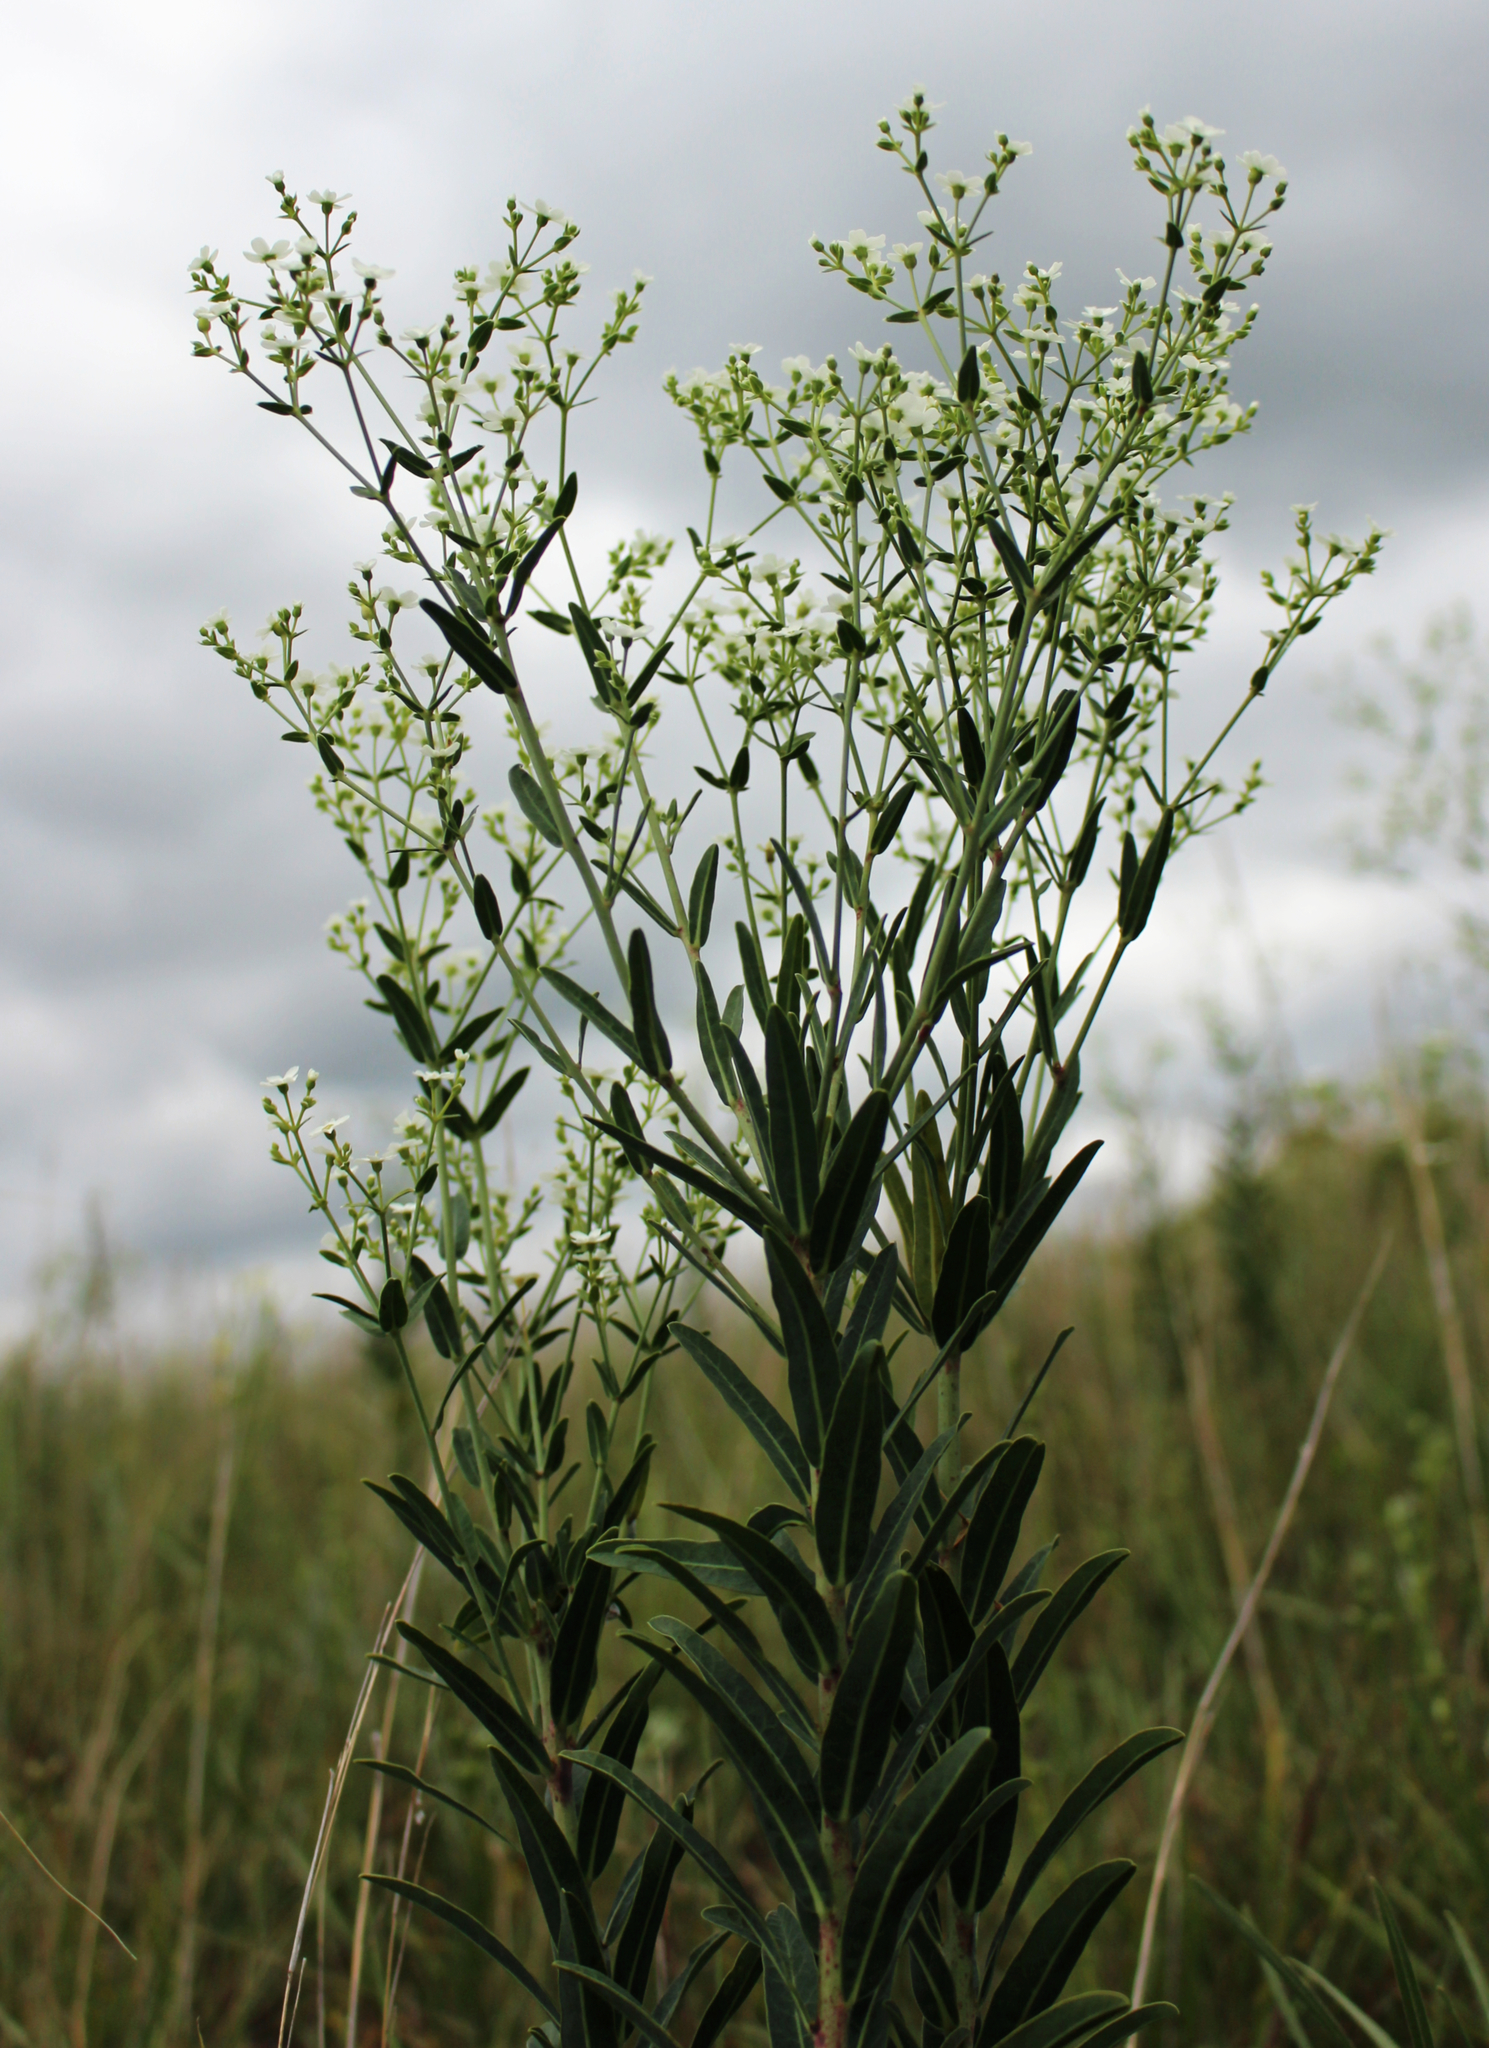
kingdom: Plantae
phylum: Tracheophyta
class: Magnoliopsida
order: Malpighiales
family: Euphorbiaceae
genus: Euphorbia
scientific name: Euphorbia corollata
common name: Flowering spurge
